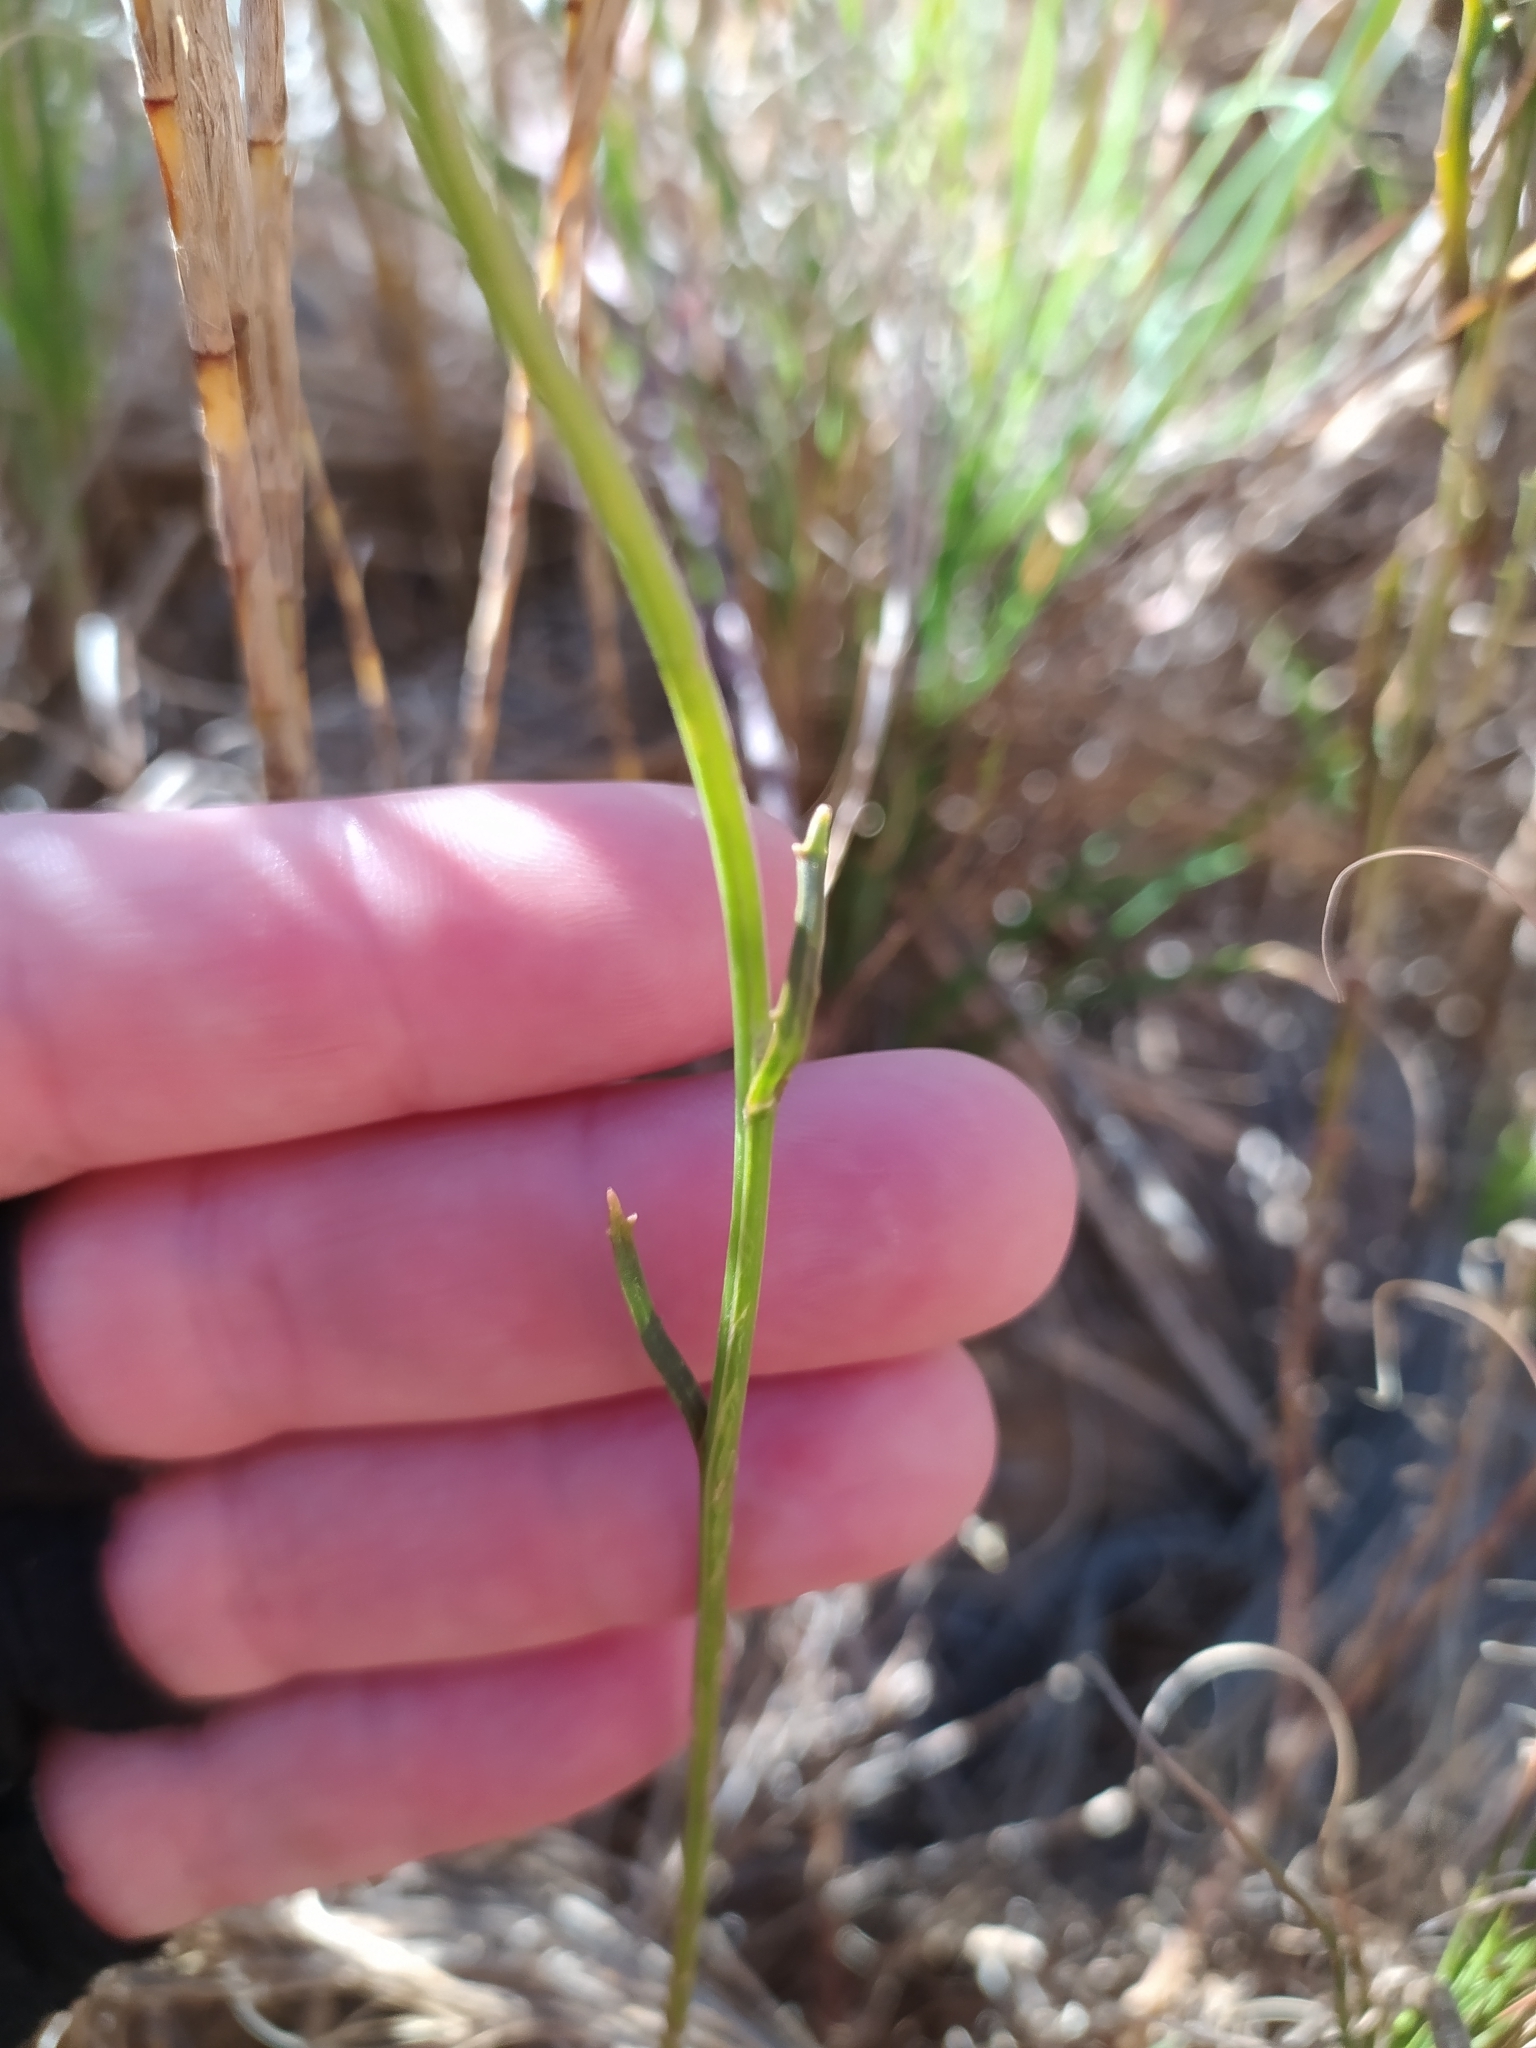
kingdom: Plantae
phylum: Tracheophyta
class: Magnoliopsida
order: Asterales
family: Campanulaceae
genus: Lobelia
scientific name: Lobelia comosa
